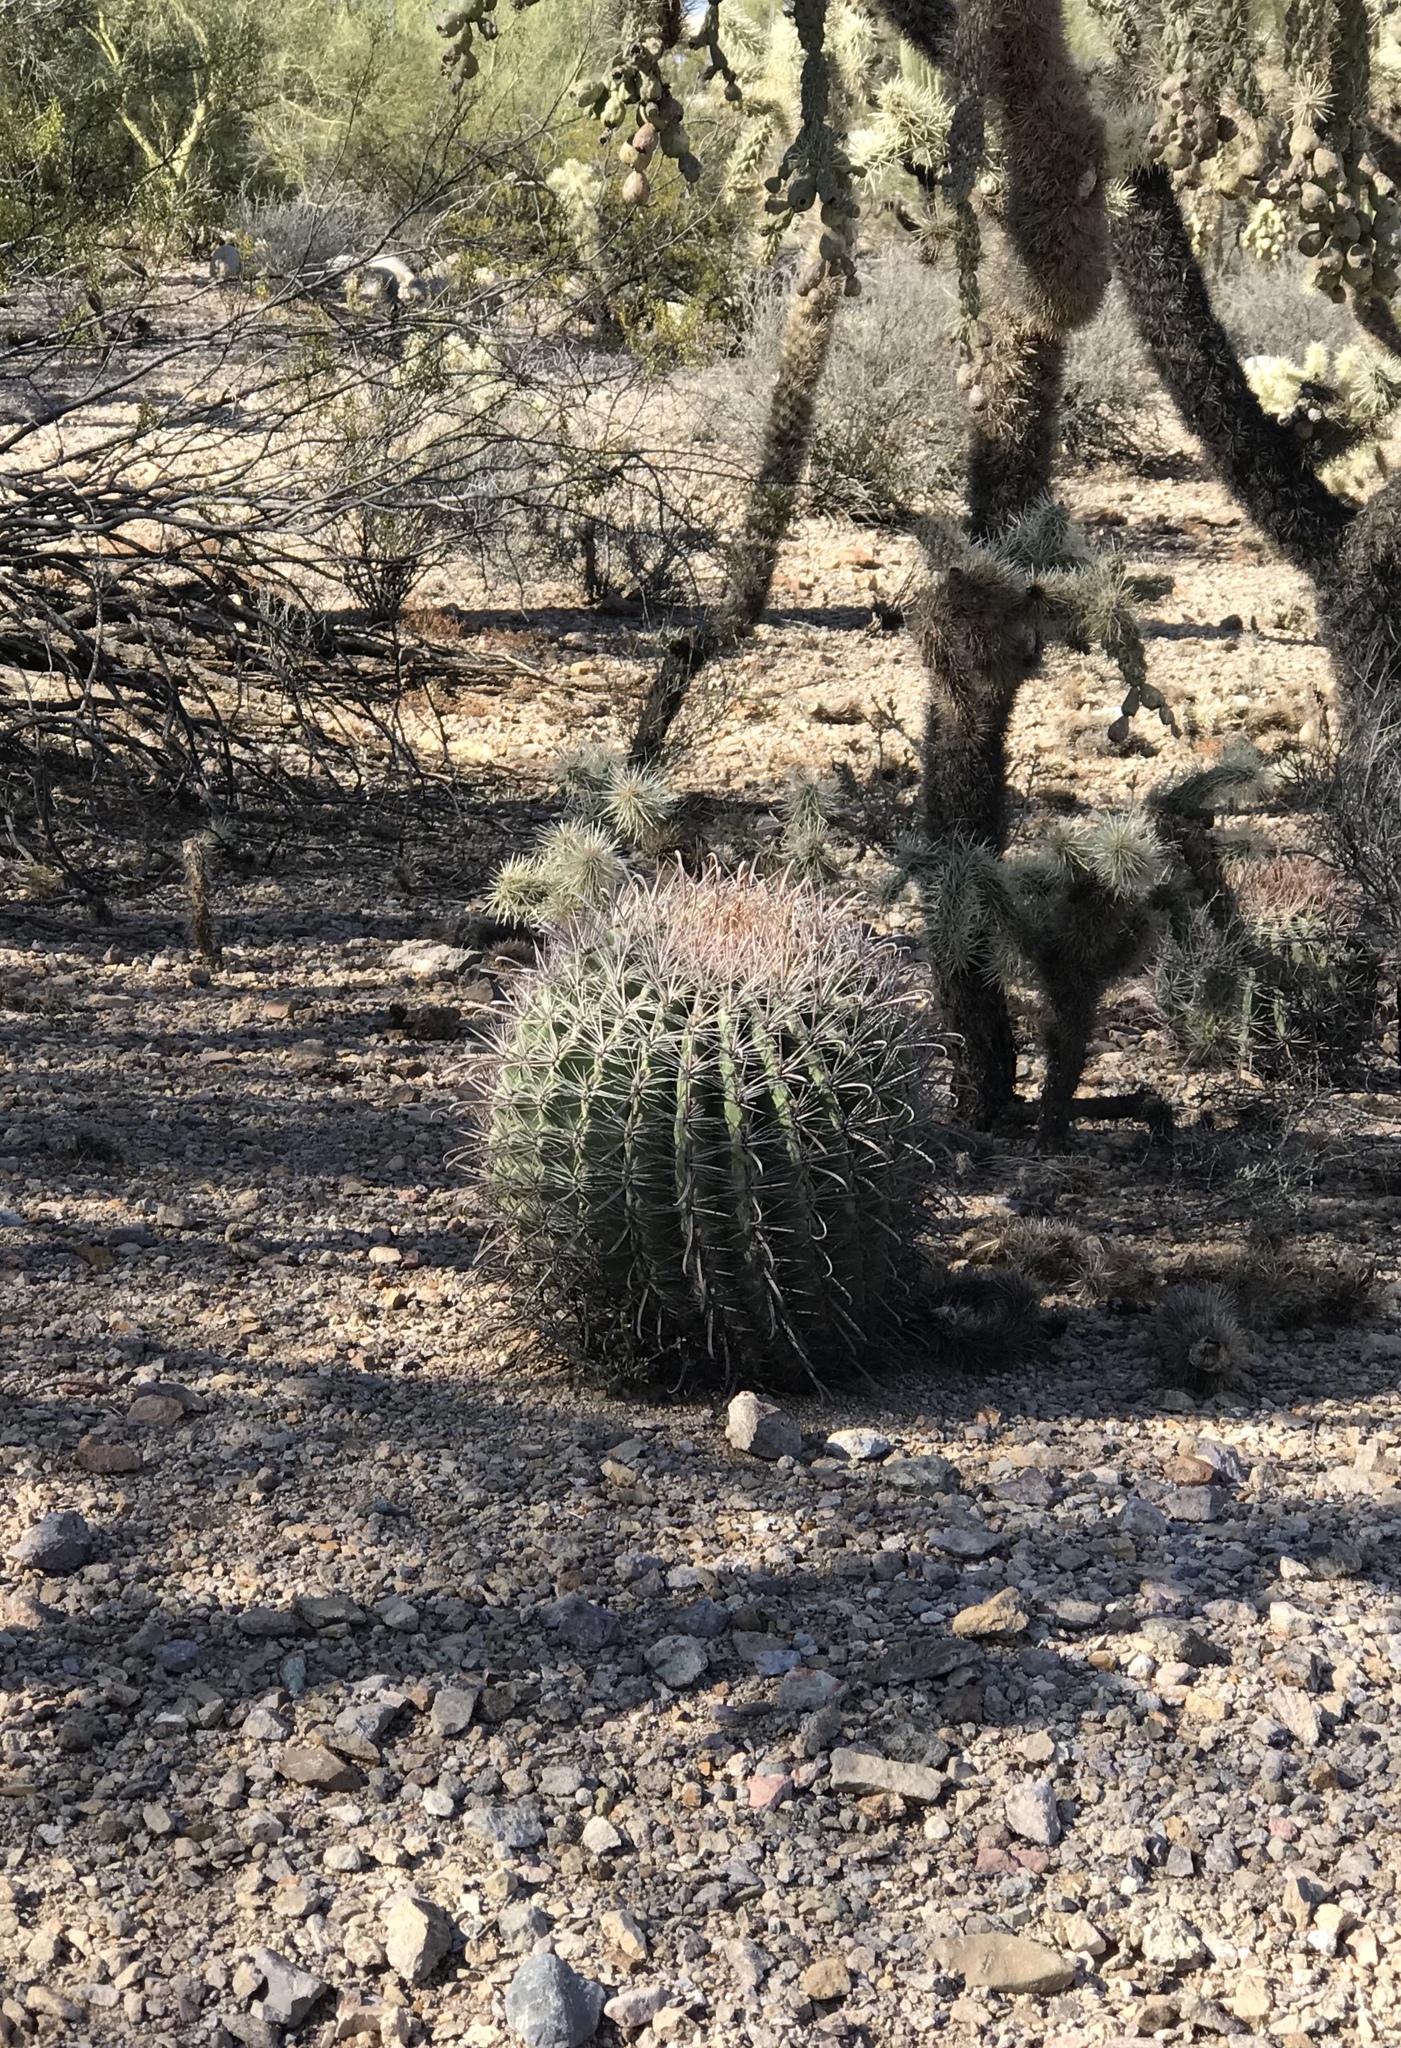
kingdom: Plantae
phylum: Tracheophyta
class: Magnoliopsida
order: Caryophyllales
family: Cactaceae
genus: Ferocactus
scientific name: Ferocactus wislizeni
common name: Candy barrel cactus
